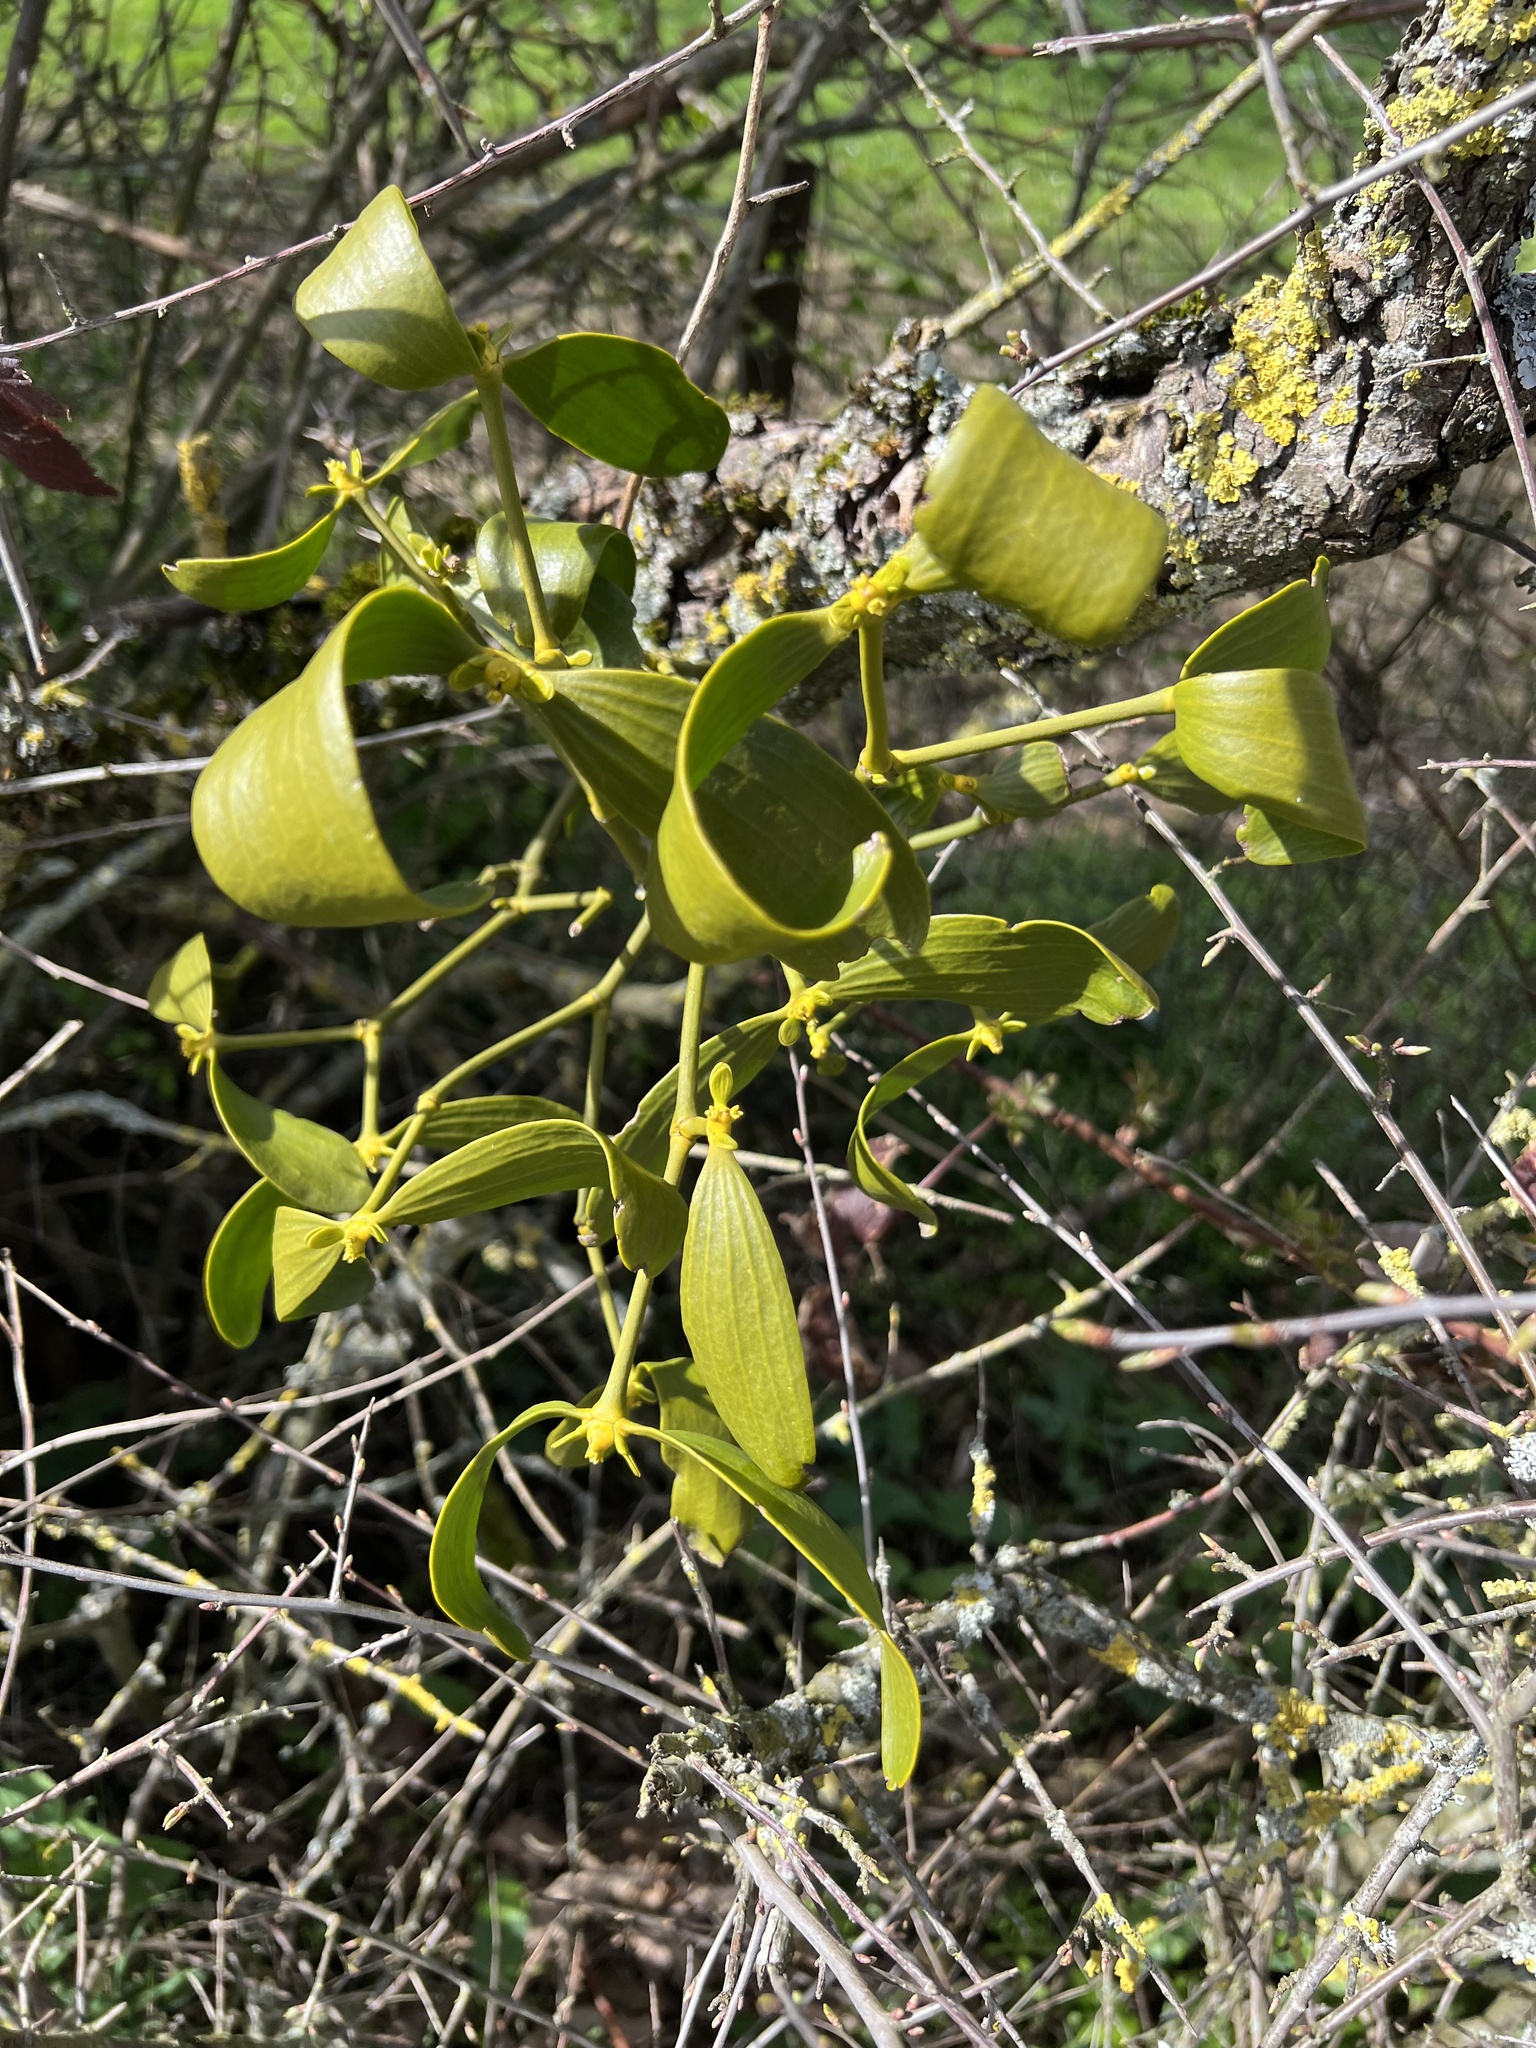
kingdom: Plantae
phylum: Tracheophyta
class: Magnoliopsida
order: Santalales
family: Viscaceae
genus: Viscum
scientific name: Viscum album
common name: Mistletoe
